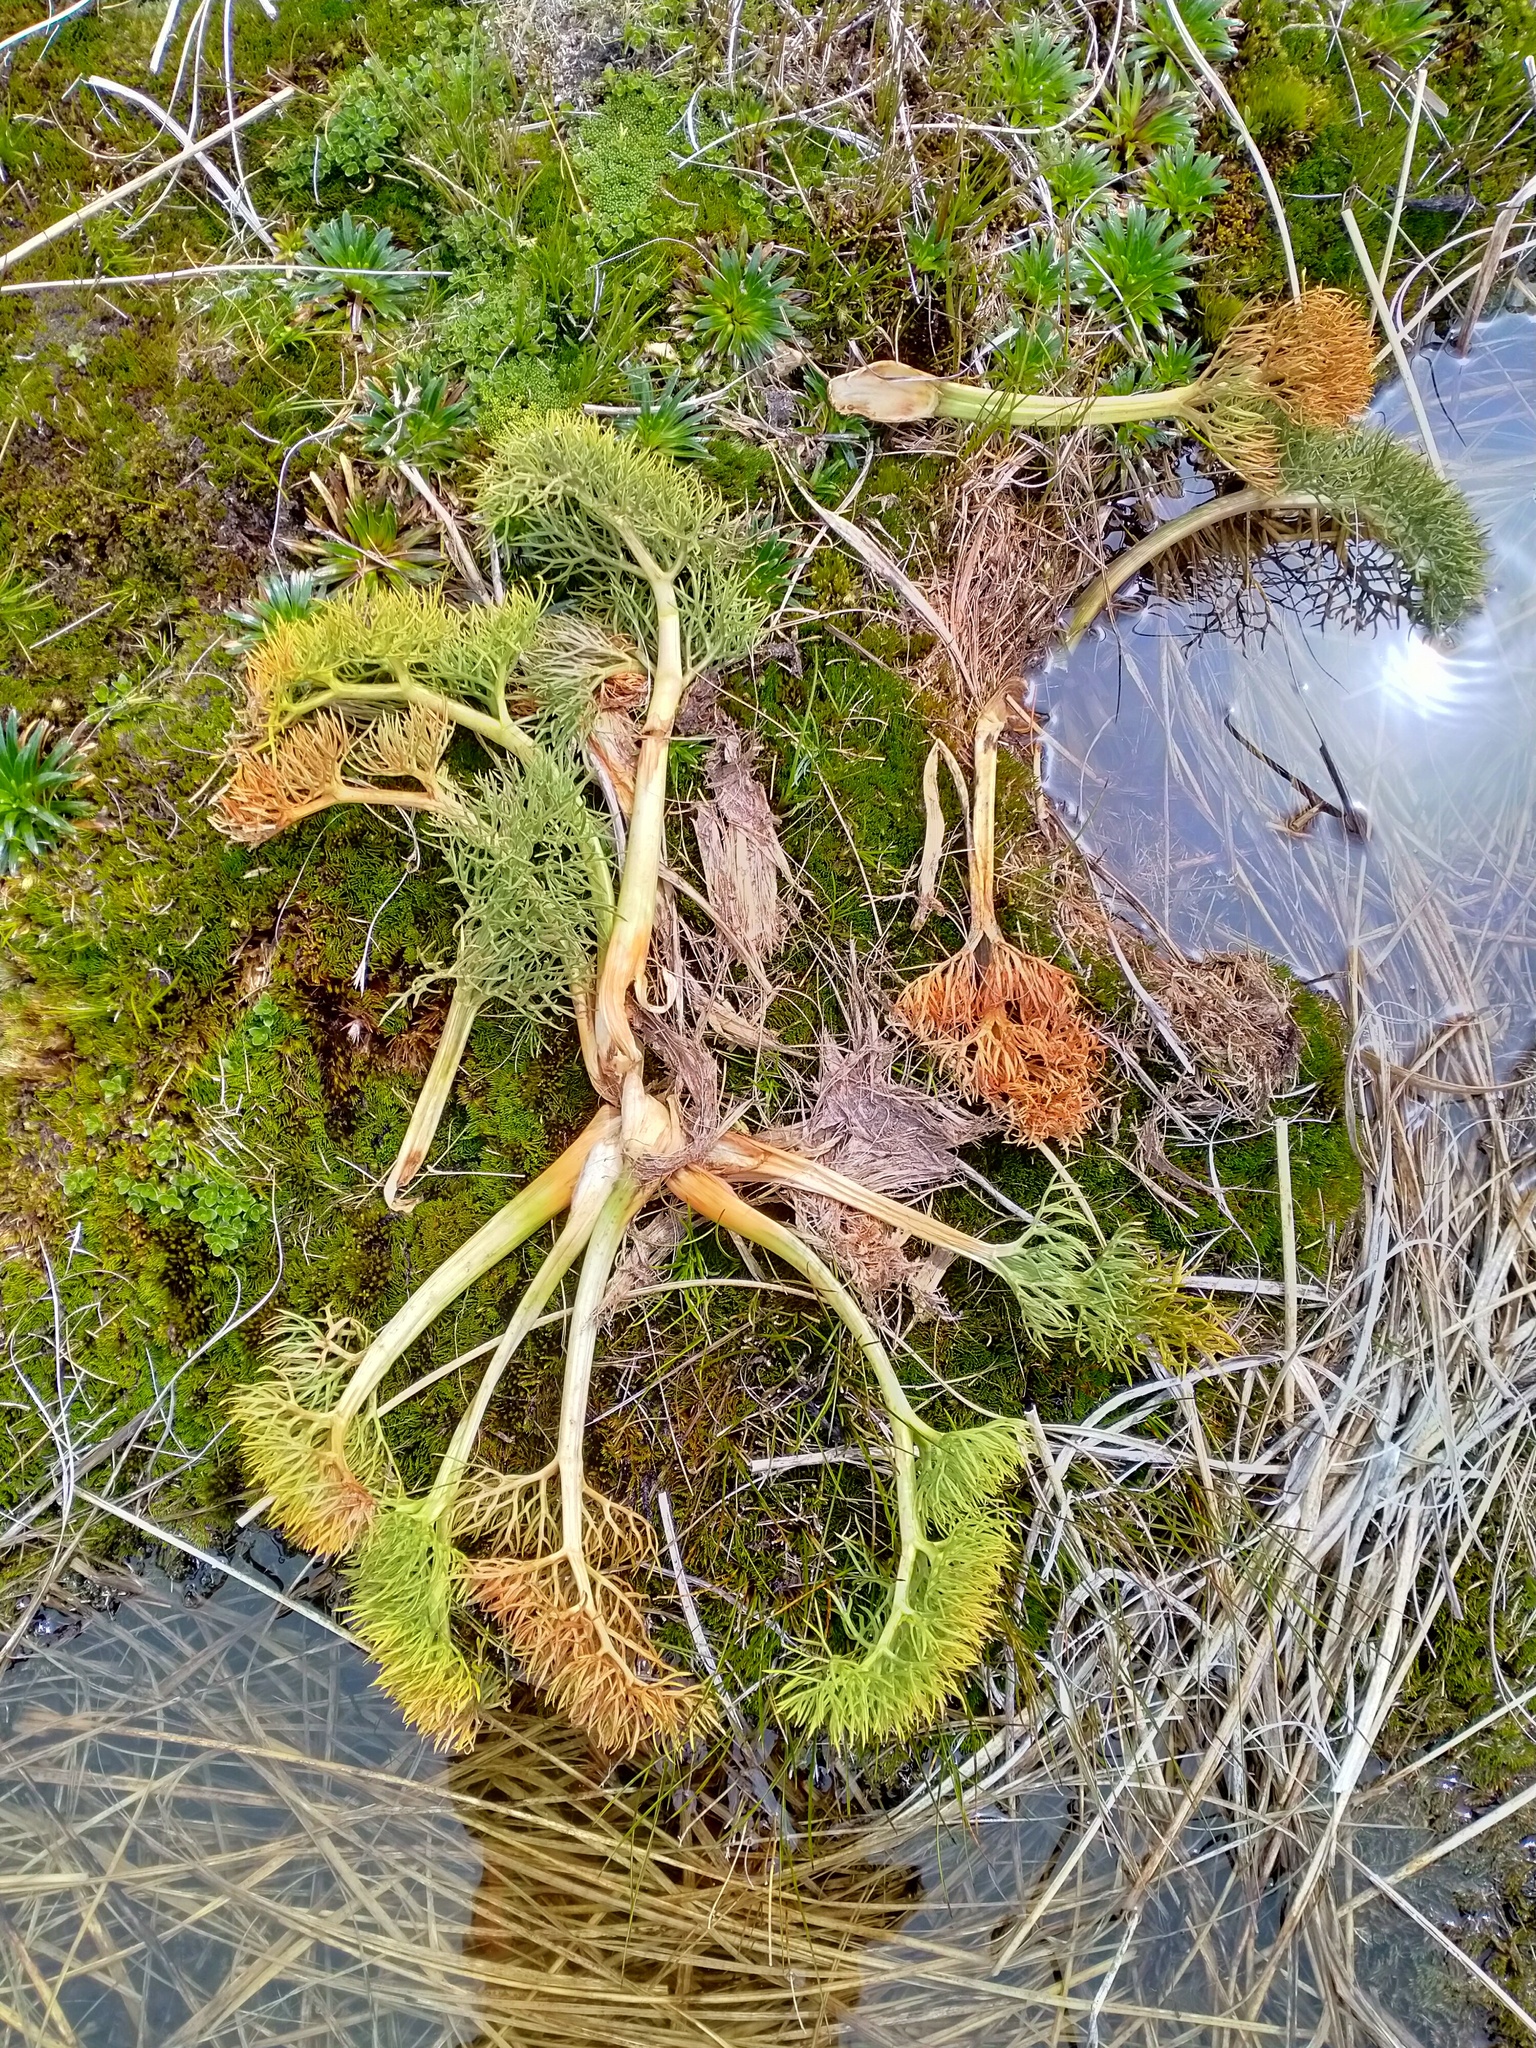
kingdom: Plantae
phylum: Tracheophyta
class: Magnoliopsida
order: Apiales
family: Apiaceae
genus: Anisotome
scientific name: Anisotome antipoda
